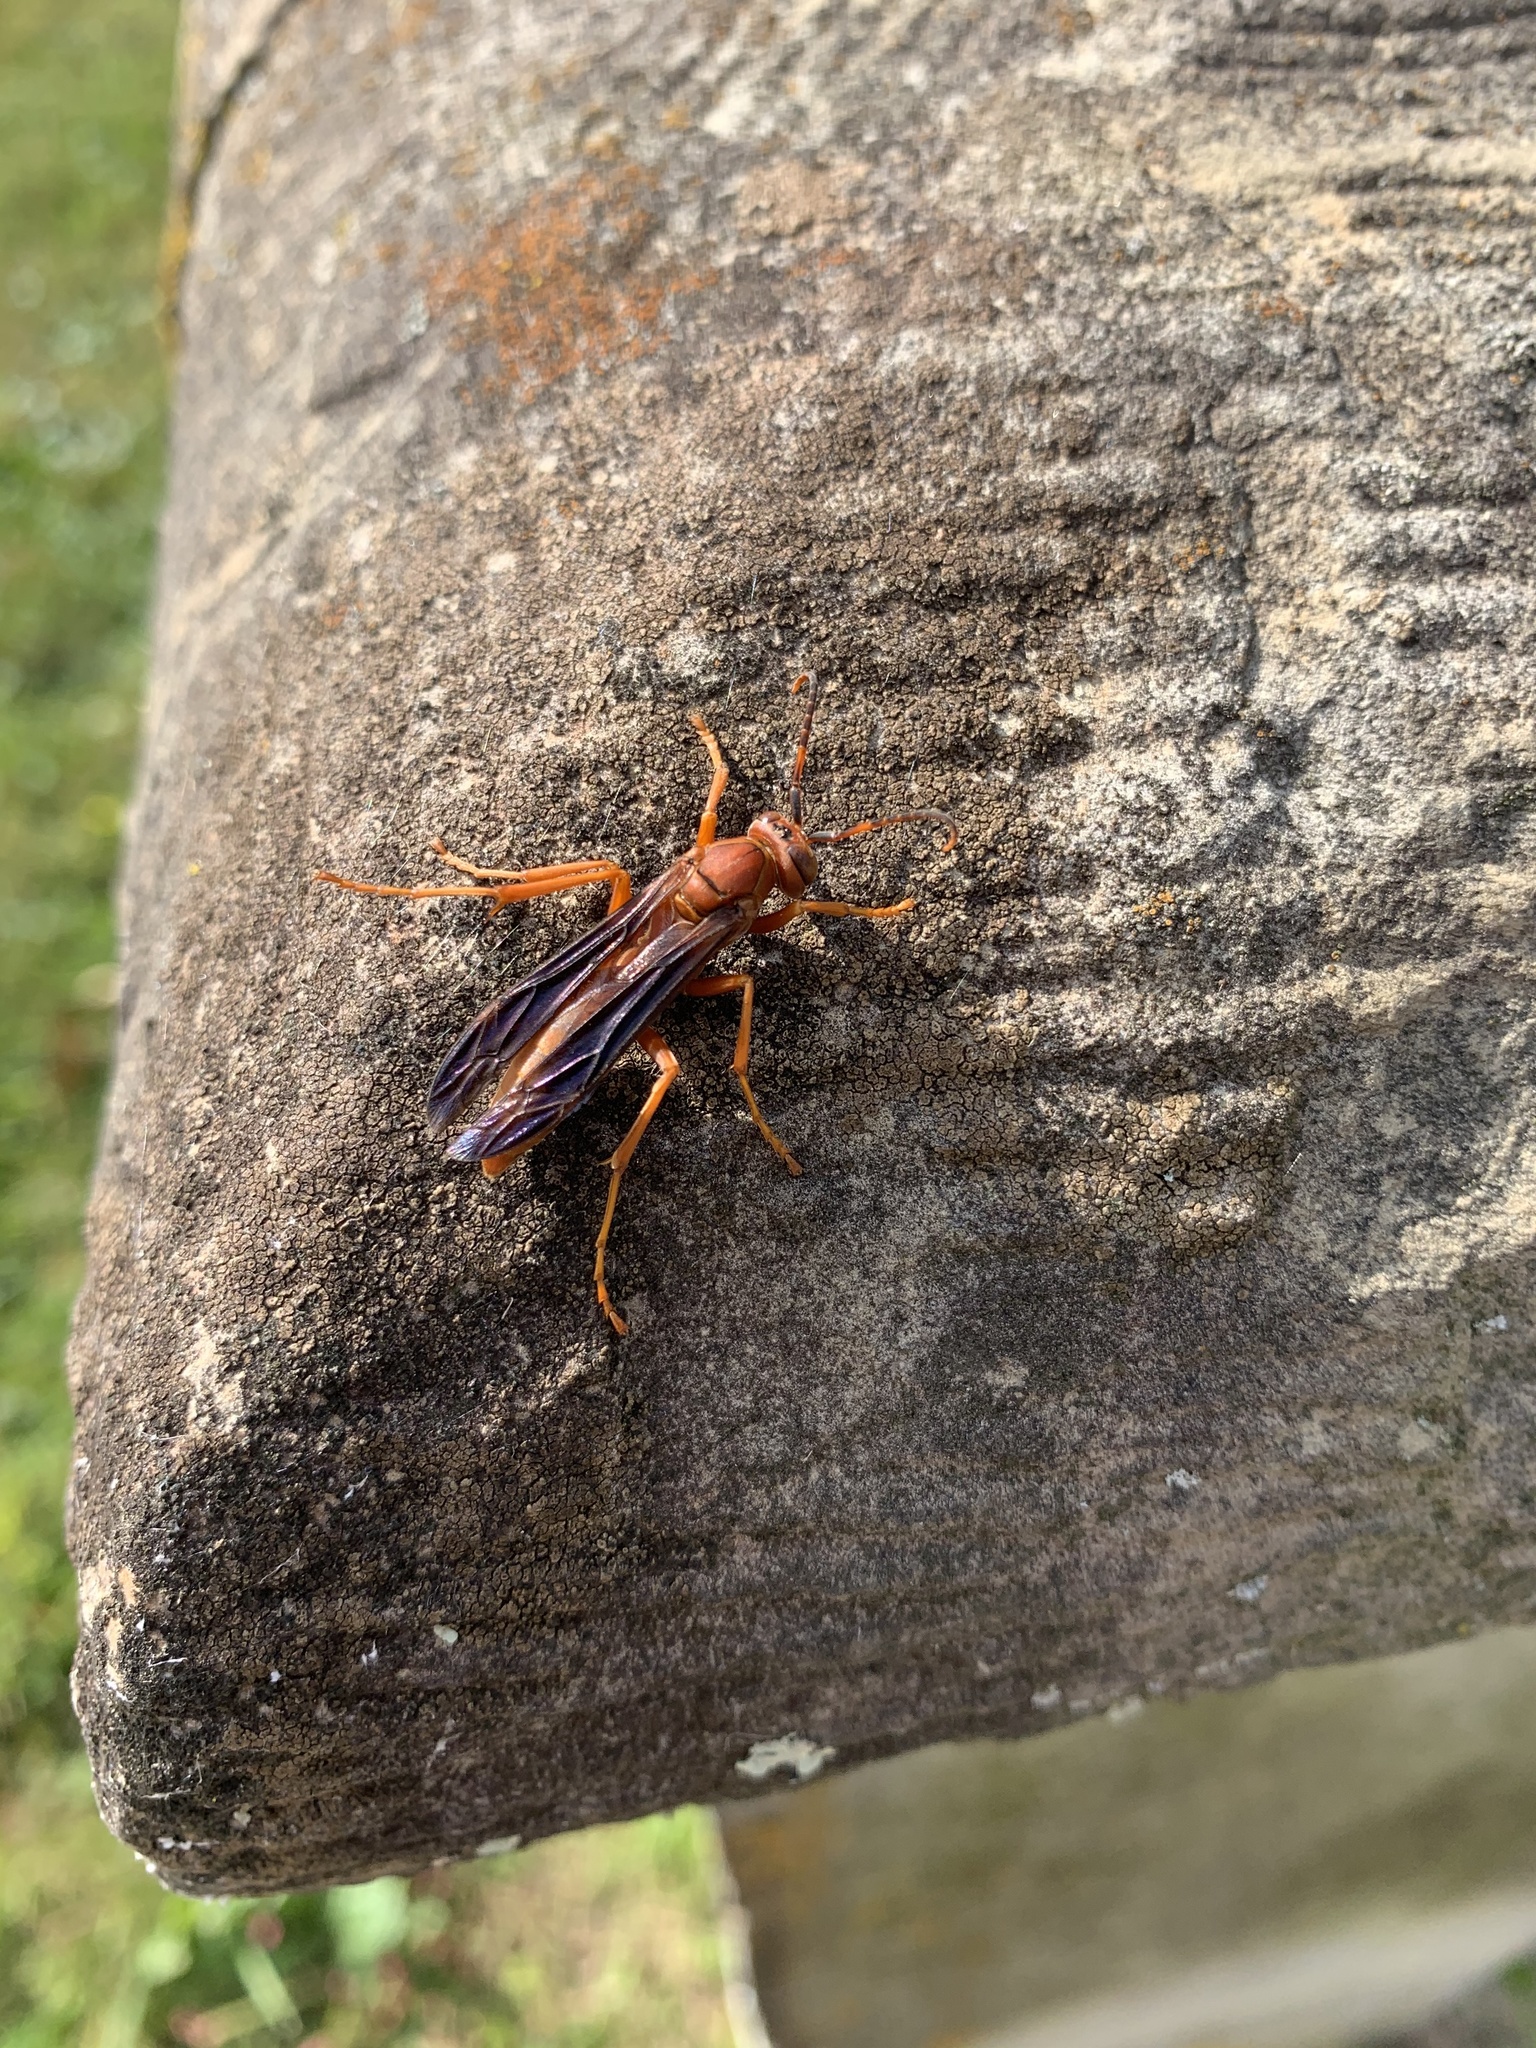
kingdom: Animalia
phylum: Arthropoda
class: Insecta
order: Hymenoptera
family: Vespidae
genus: Fuscopolistes
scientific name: Fuscopolistes
